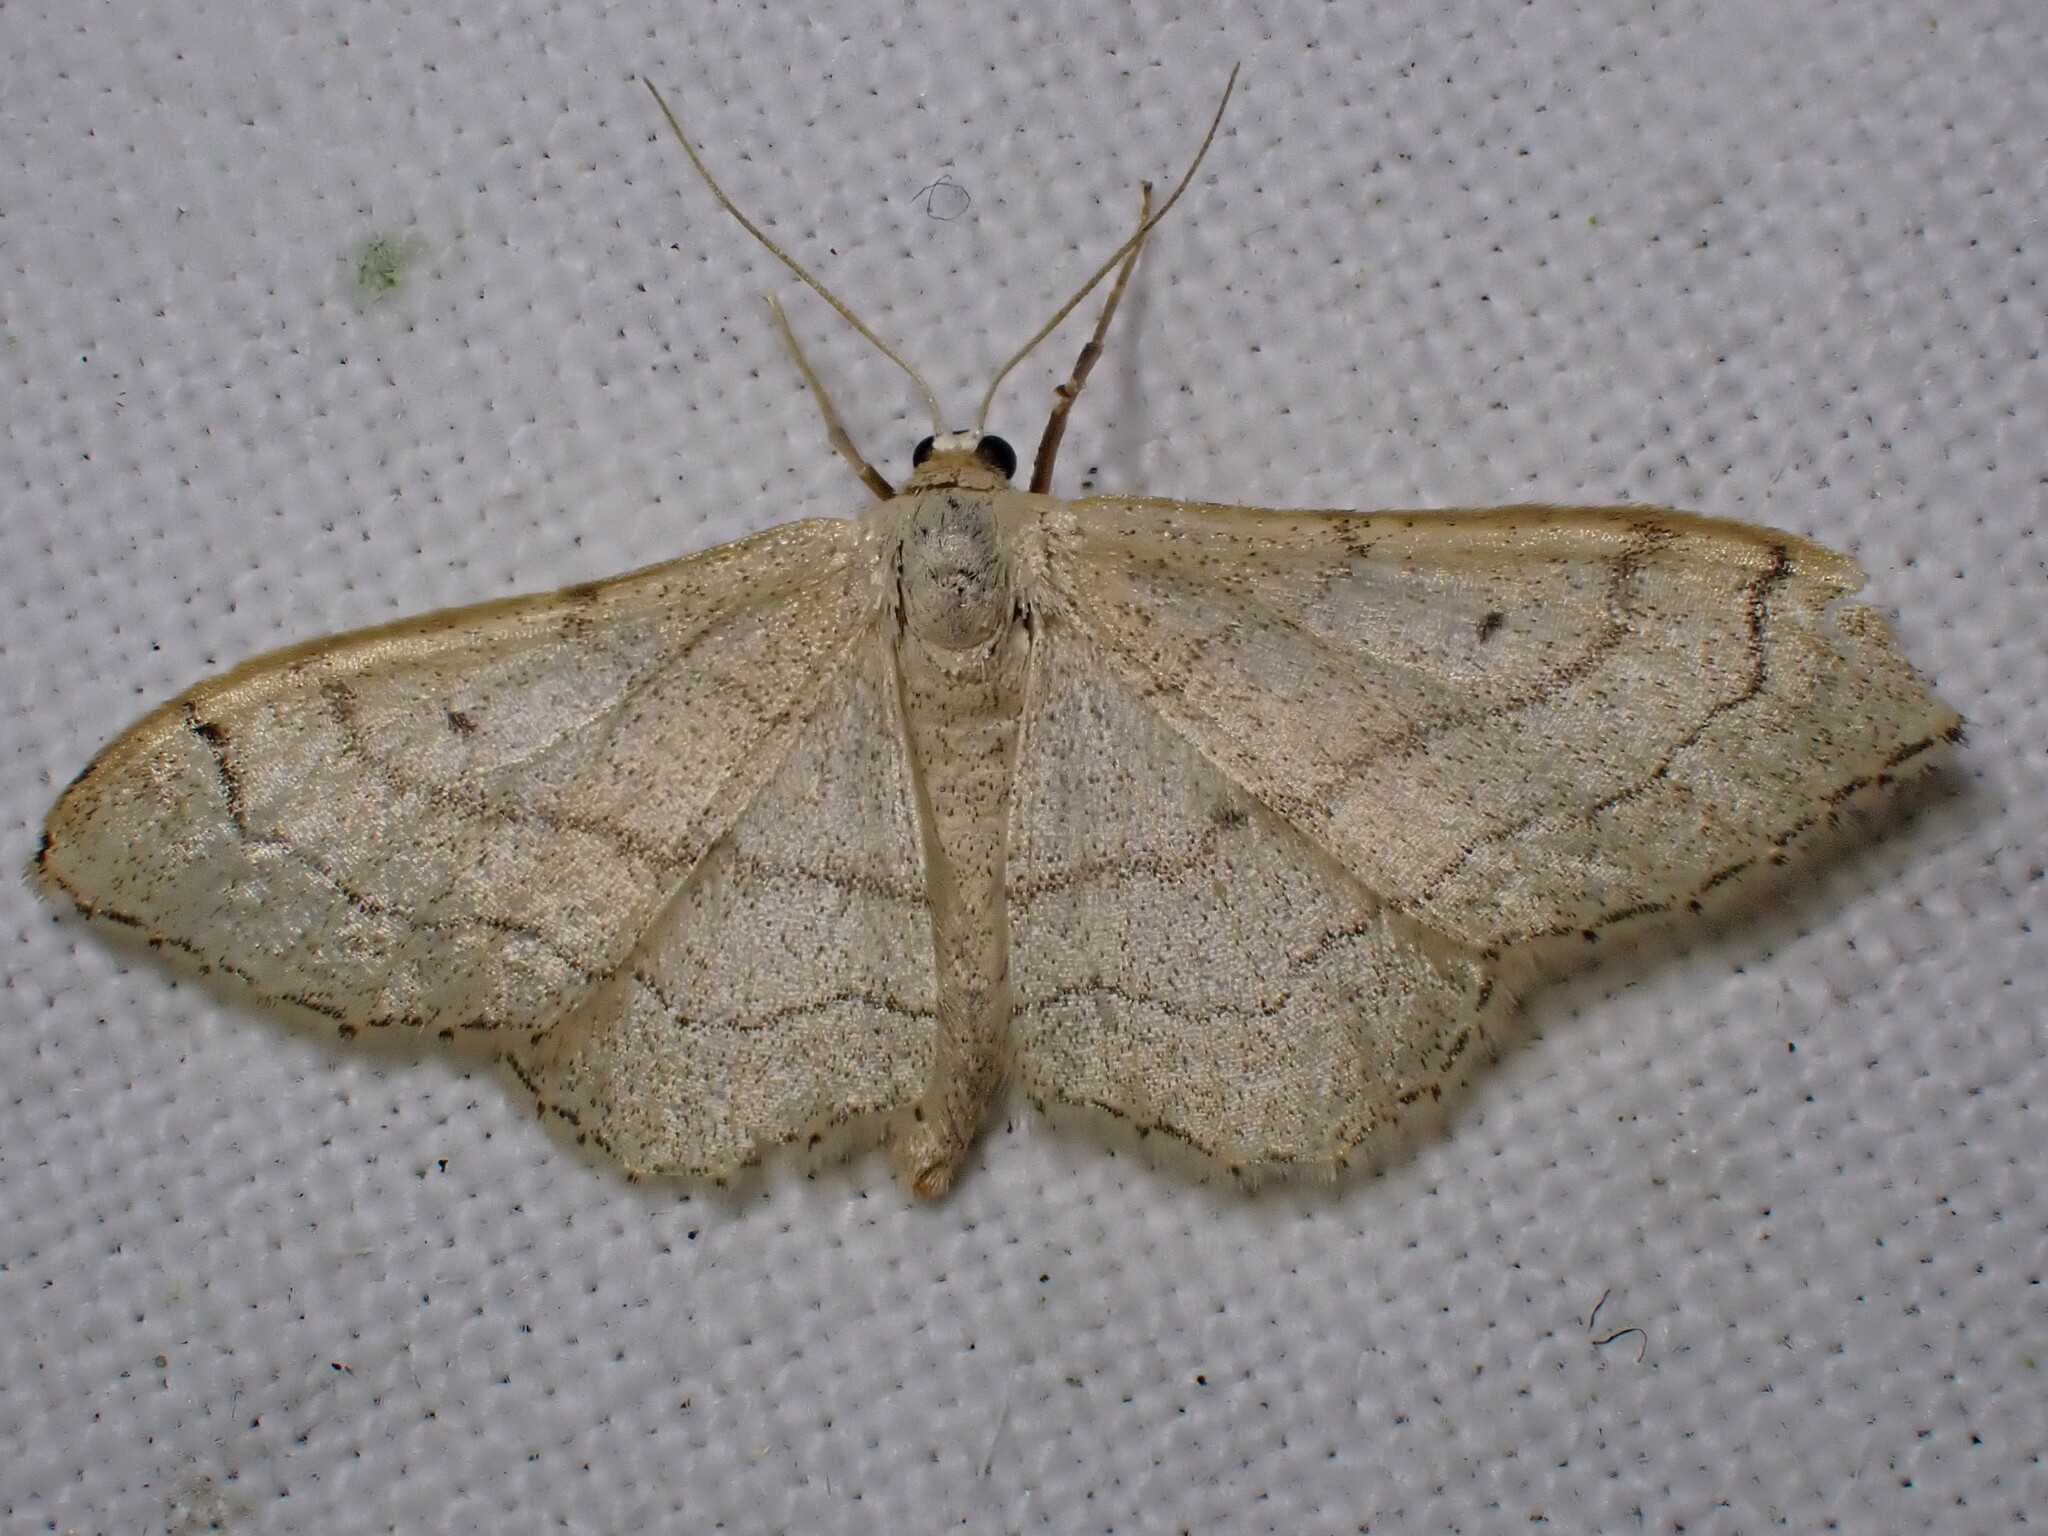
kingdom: Animalia
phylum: Arthropoda
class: Insecta
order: Lepidoptera
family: Geometridae
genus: Idaea
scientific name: Idaea aversata
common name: Riband wave
